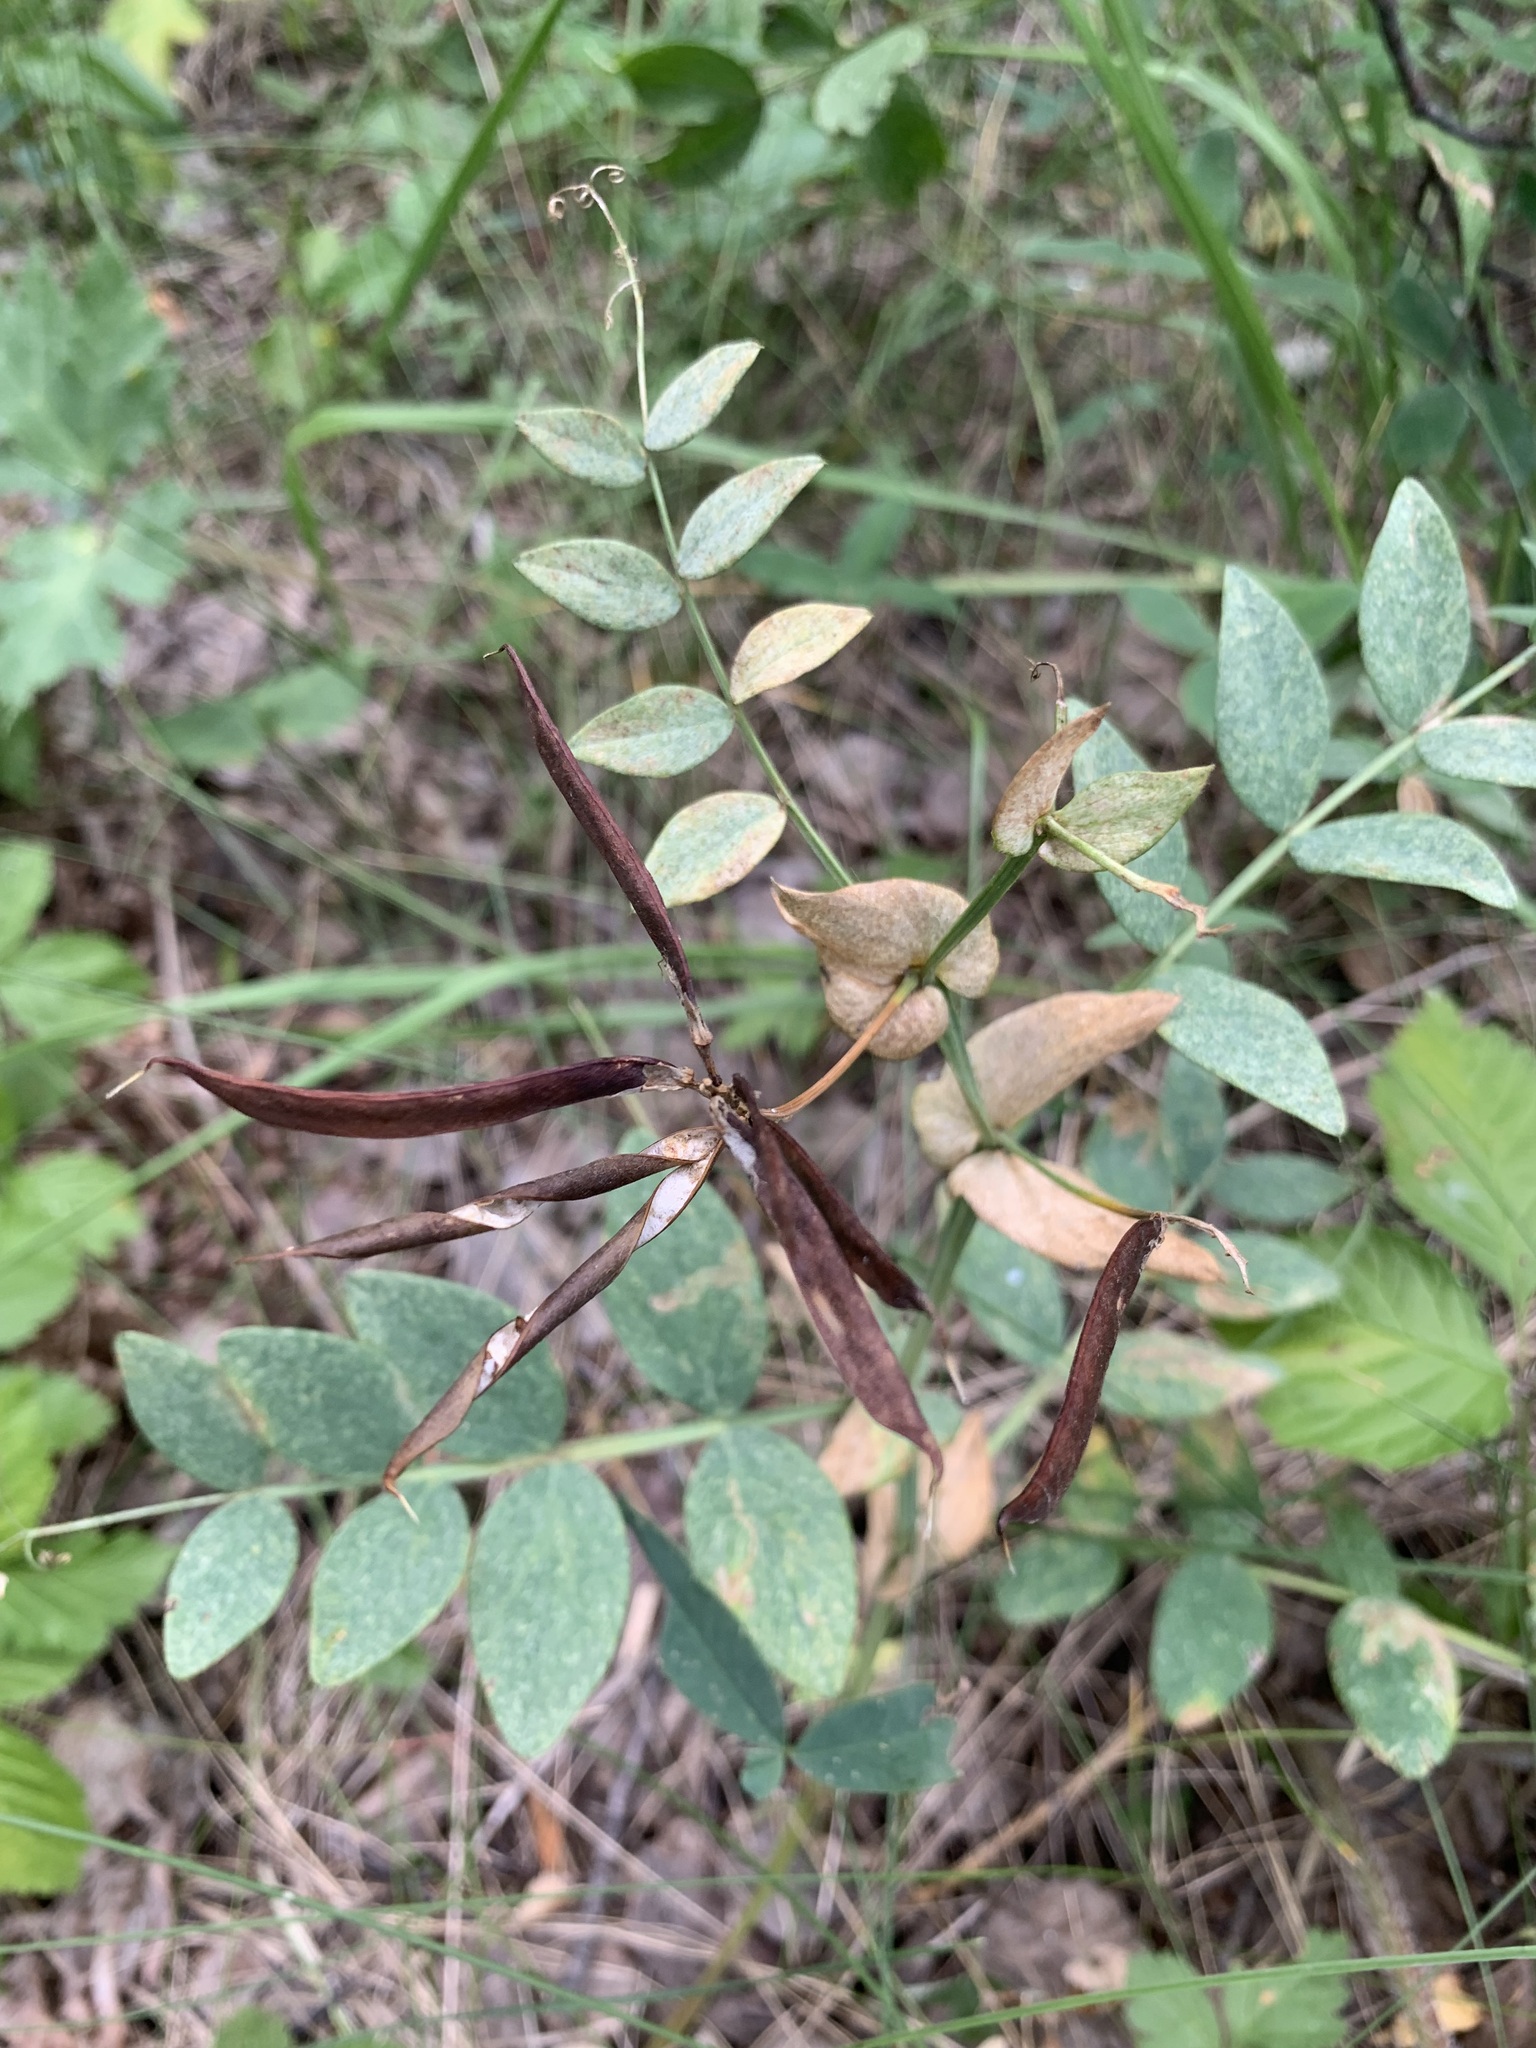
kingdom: Plantae
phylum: Tracheophyta
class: Magnoliopsida
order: Fabales
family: Fabaceae
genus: Lathyrus
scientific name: Lathyrus pisiformis
